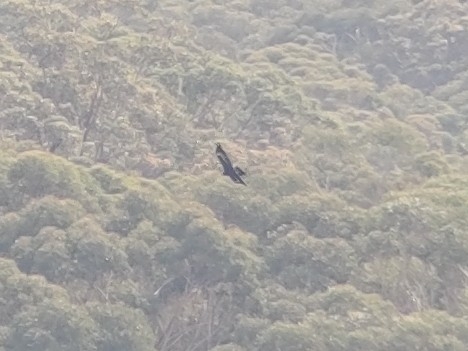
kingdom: Animalia
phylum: Chordata
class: Aves
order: Accipitriformes
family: Accipitridae
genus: Aquila
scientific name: Aquila audax
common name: Wedge-tailed eagle
